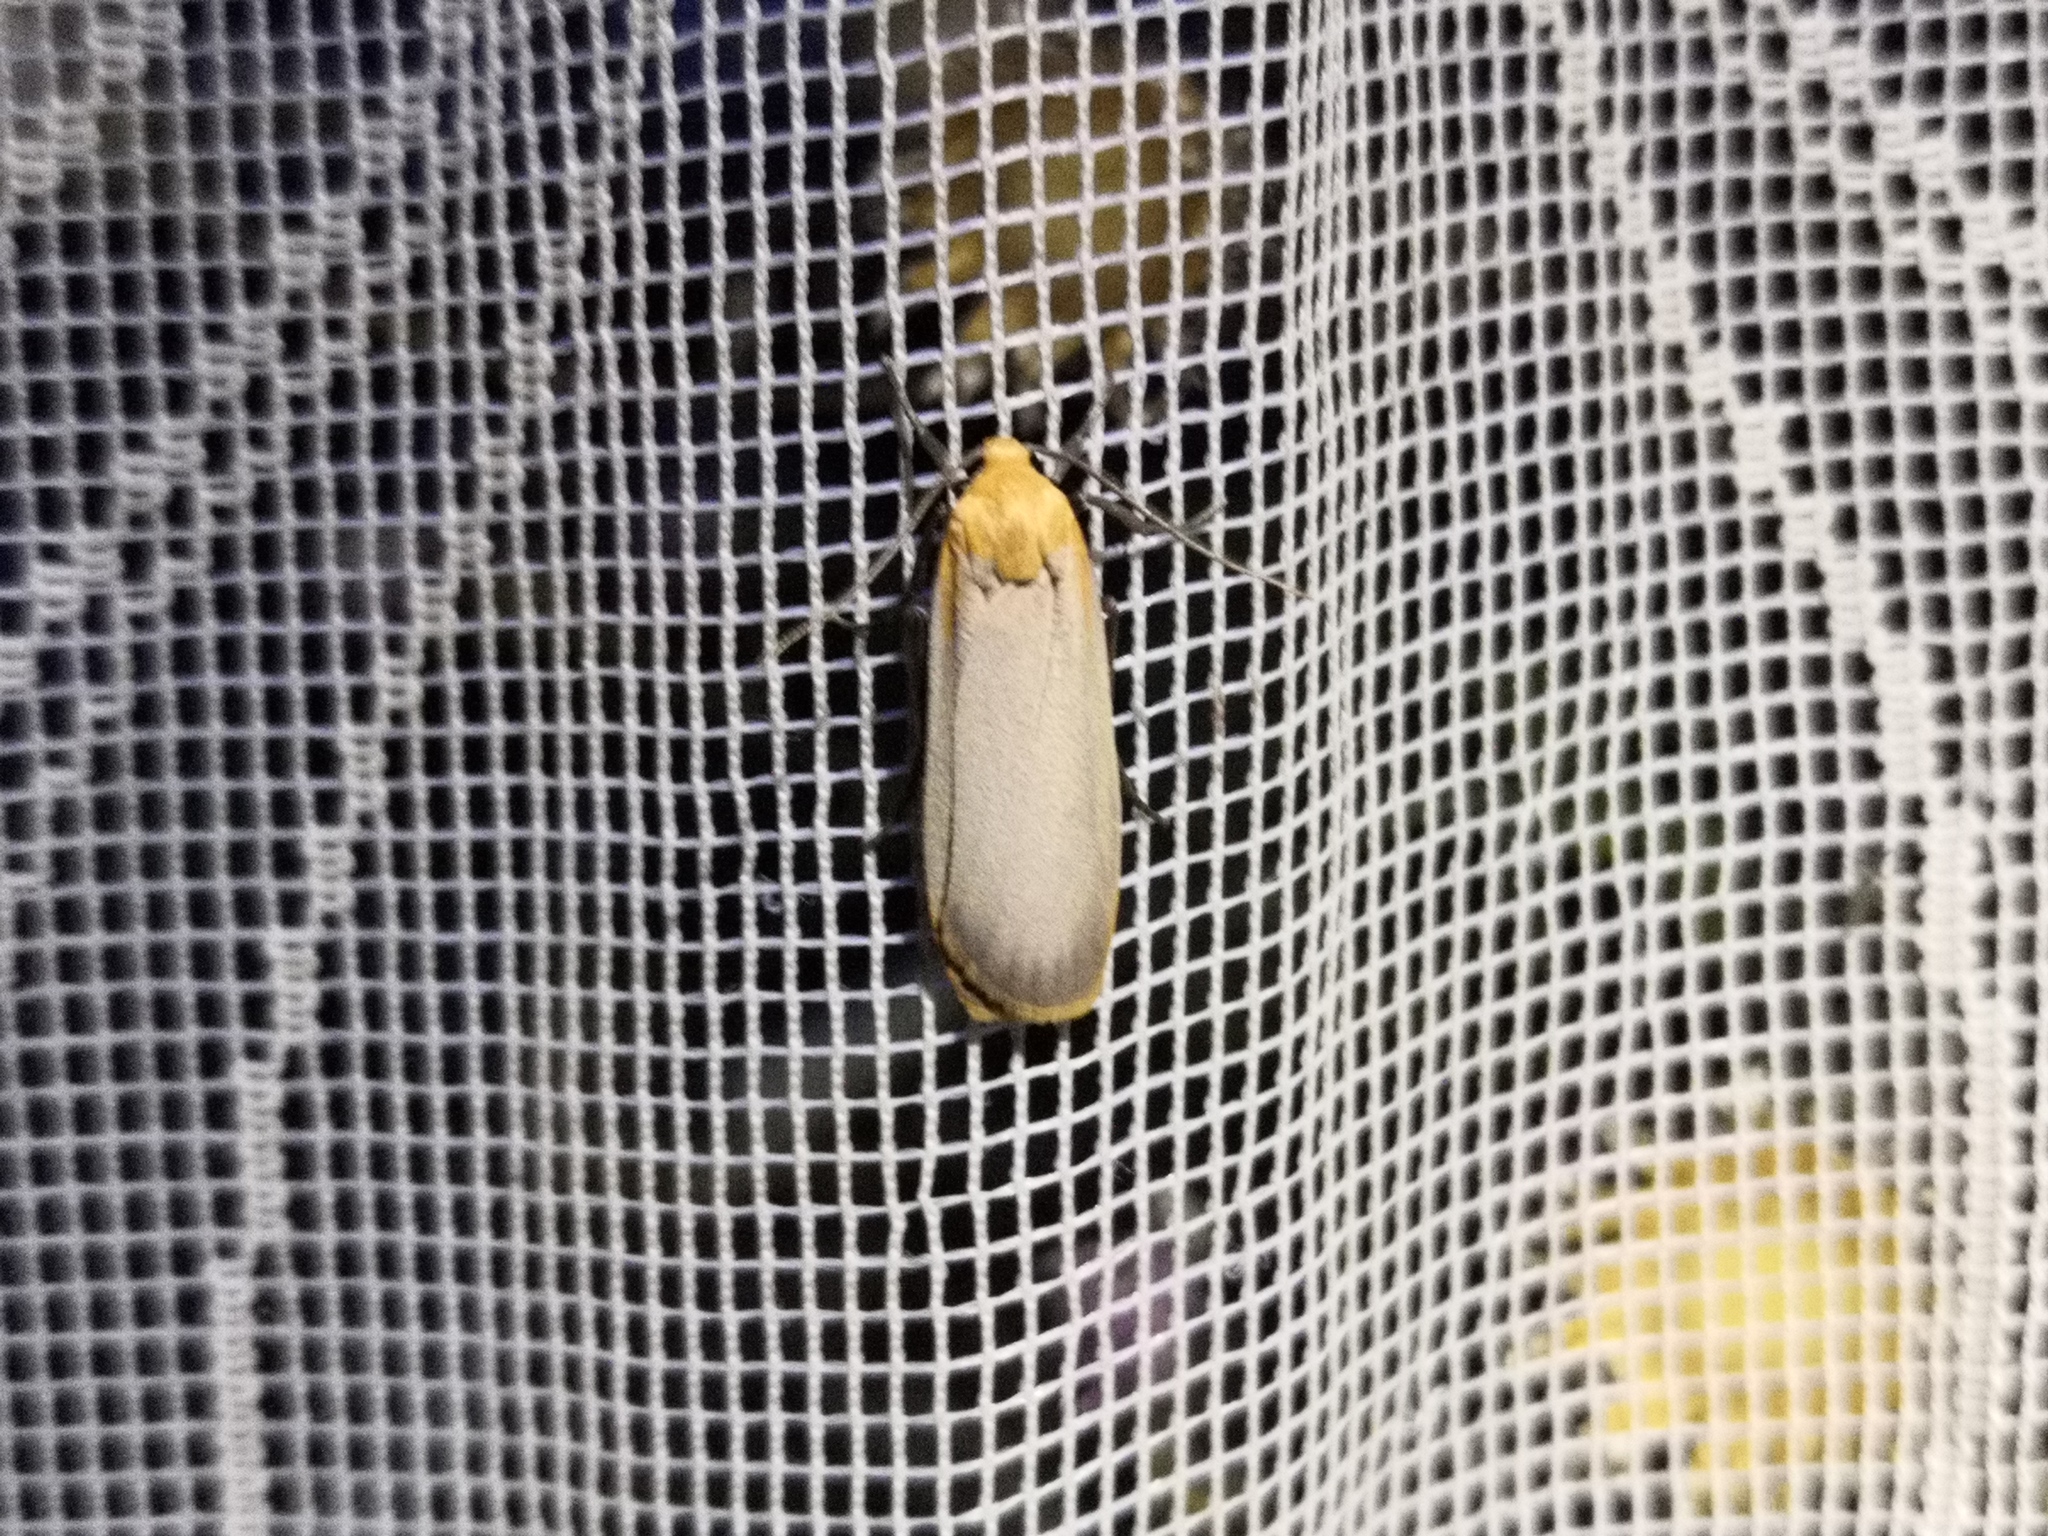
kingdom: Animalia
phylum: Arthropoda
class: Insecta
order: Lepidoptera
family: Erebidae
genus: Katha
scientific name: Katha depressa
